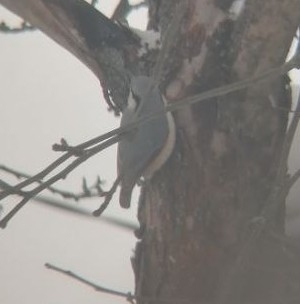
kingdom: Animalia
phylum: Chordata
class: Aves
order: Passeriformes
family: Sittidae
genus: Sitta
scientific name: Sitta europaea
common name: Eurasian nuthatch
